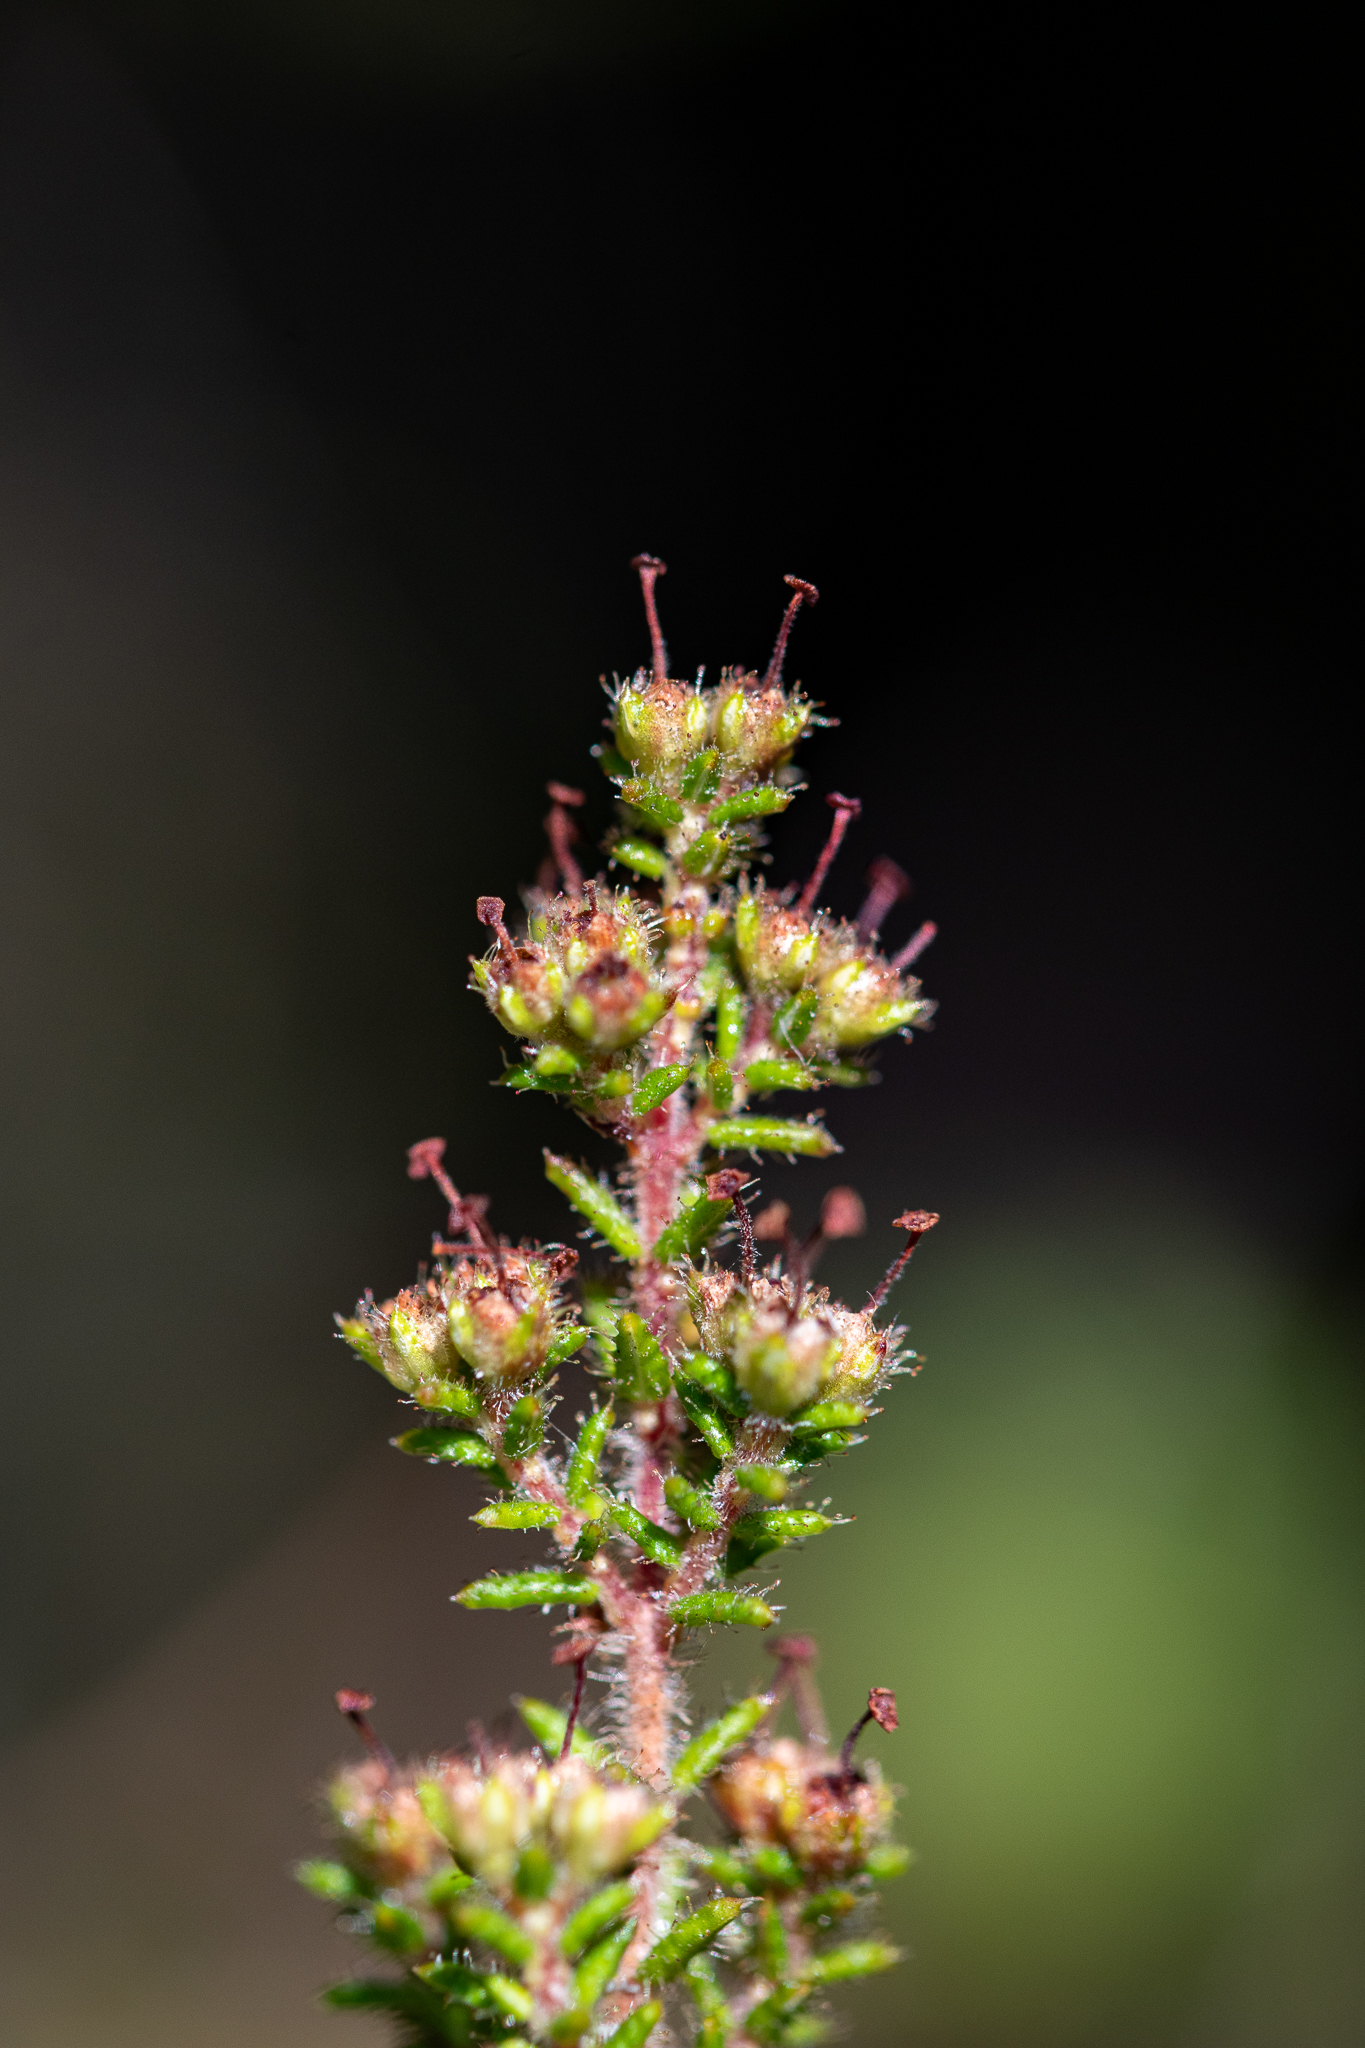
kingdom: Plantae
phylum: Tracheophyta
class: Magnoliopsida
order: Ericales
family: Ericaceae
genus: Erica
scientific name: Erica sessiliflora
